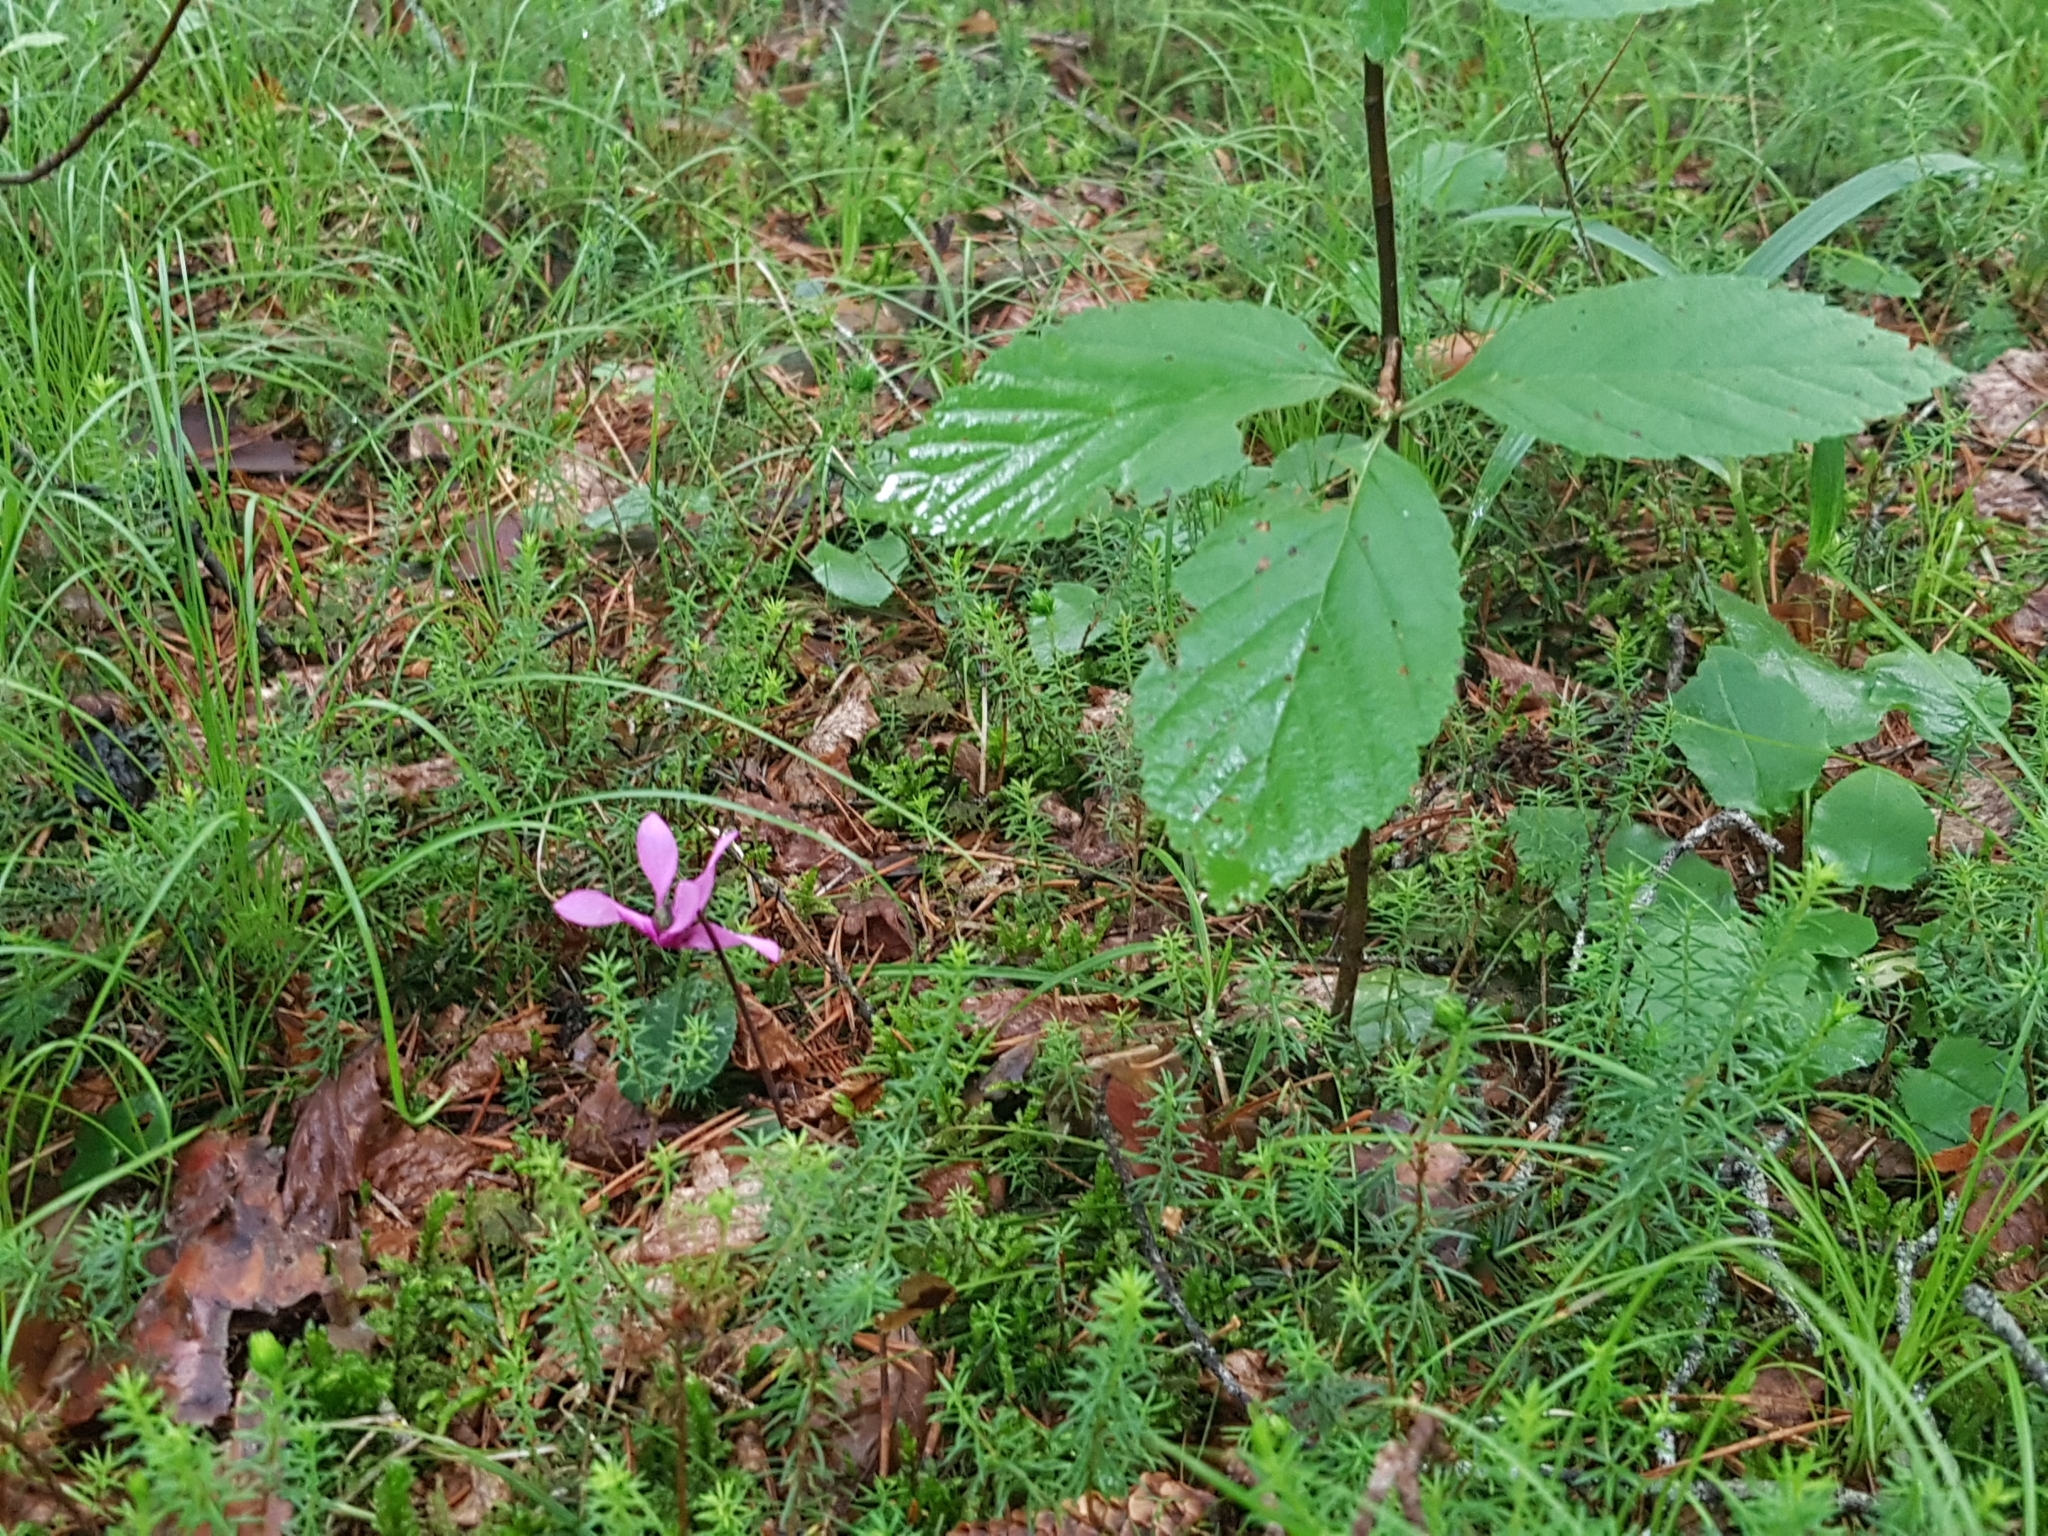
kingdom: Plantae
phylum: Tracheophyta
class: Magnoliopsida
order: Ericales
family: Primulaceae
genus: Cyclamen
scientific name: Cyclamen purpurascens
